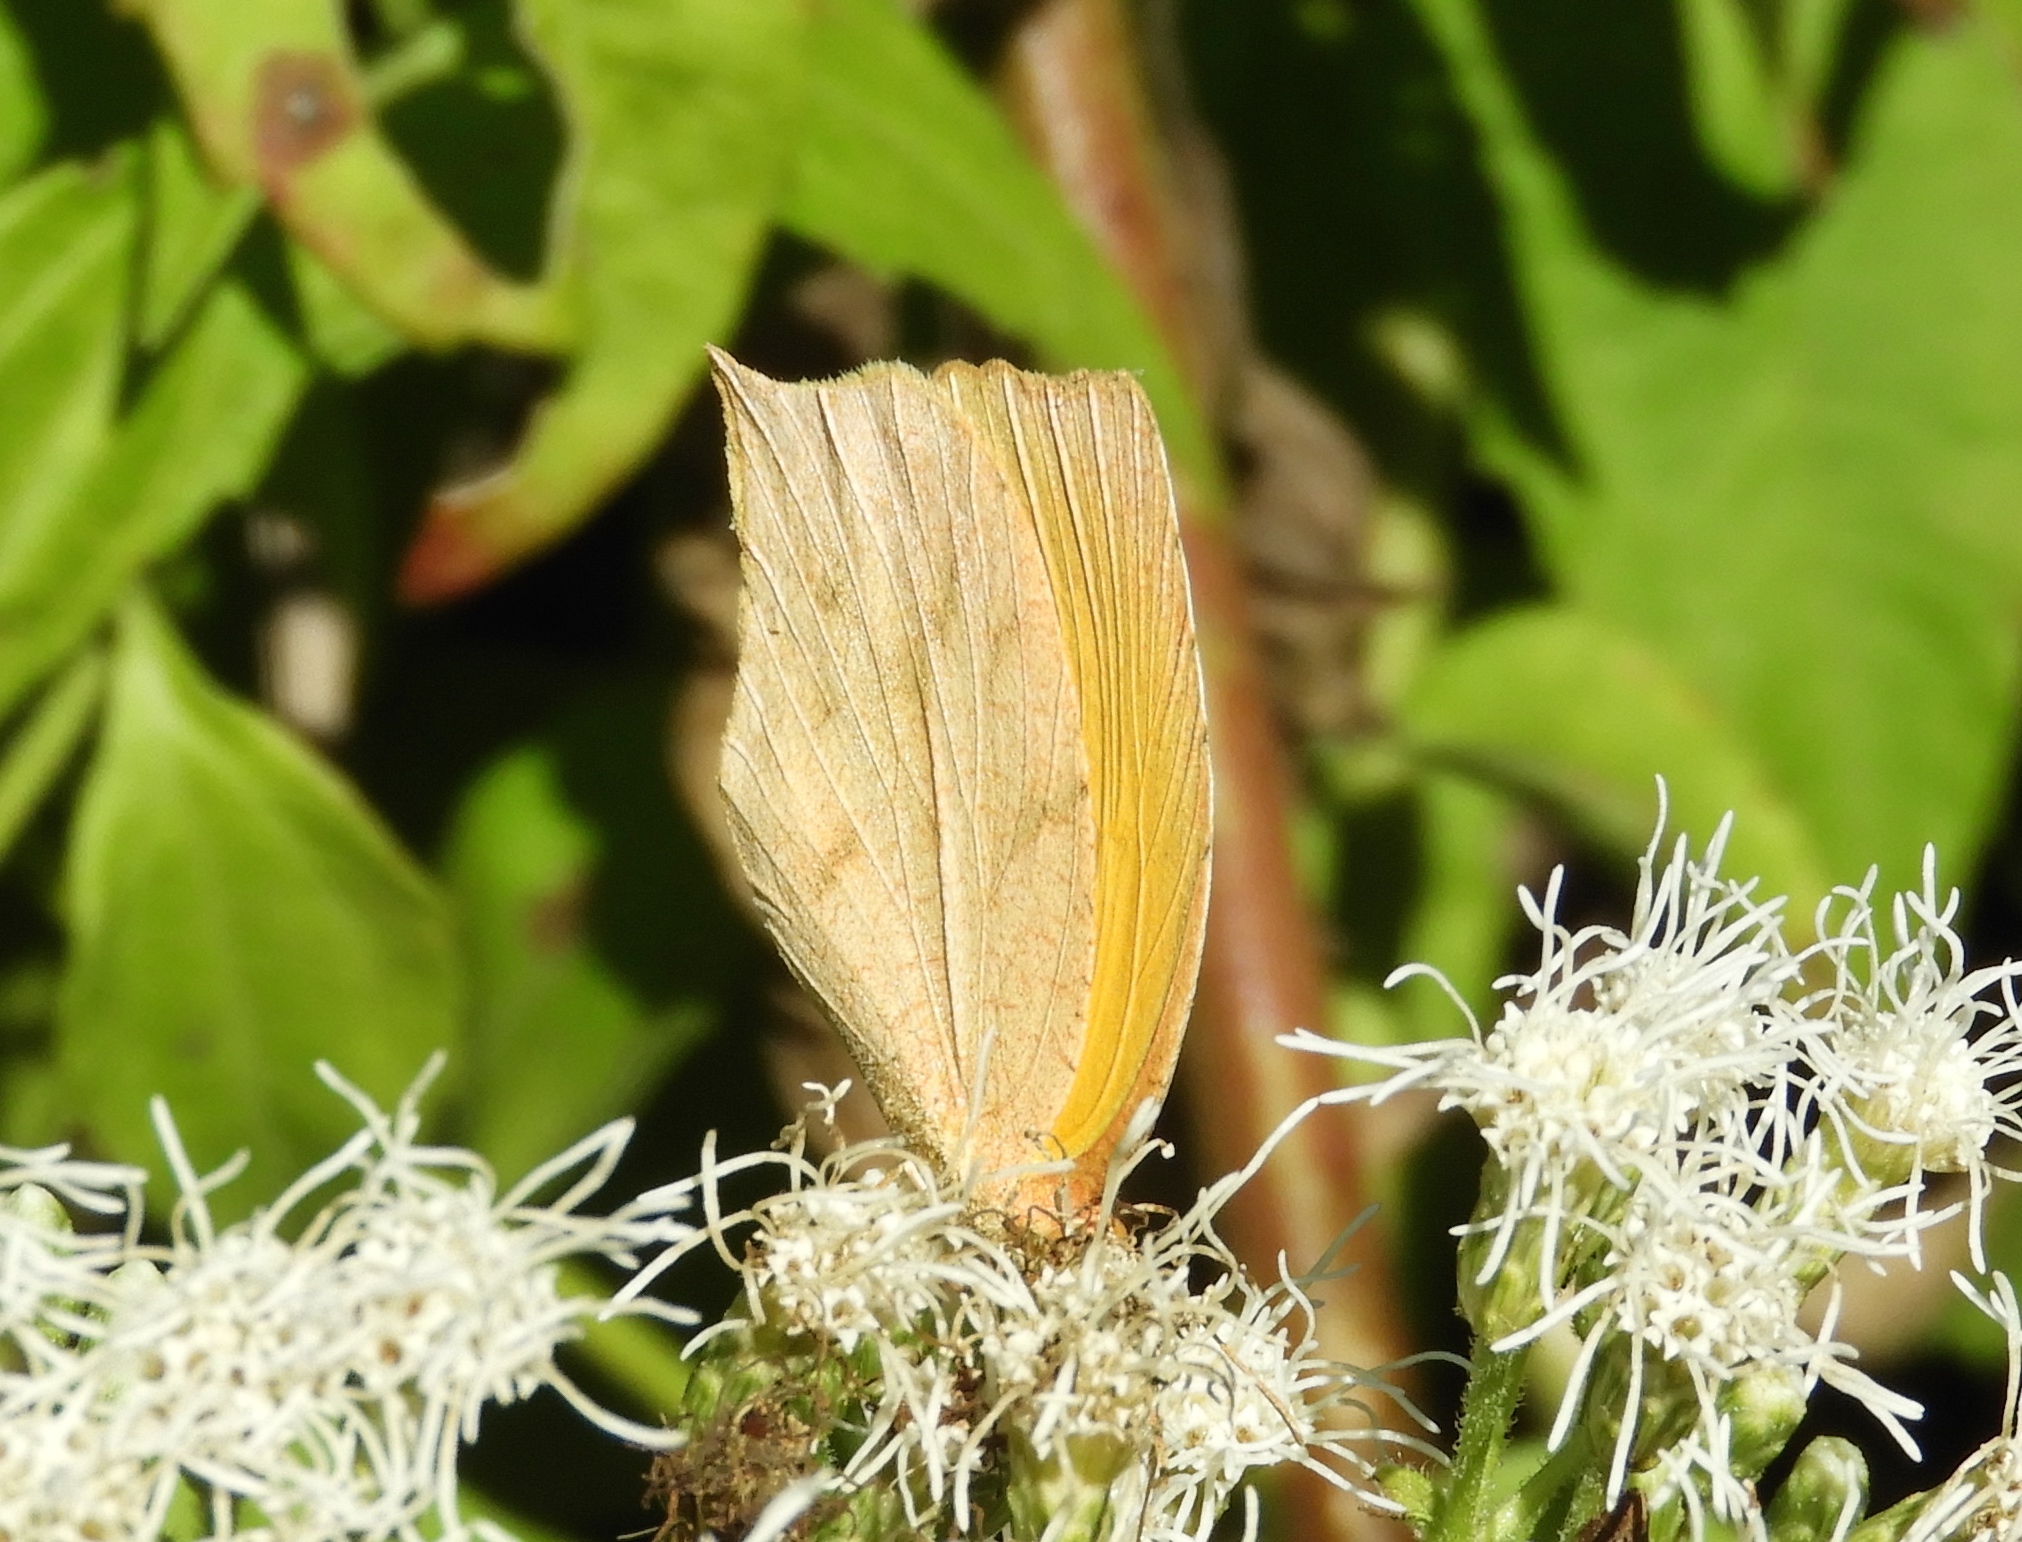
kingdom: Animalia
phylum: Arthropoda
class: Insecta
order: Lepidoptera
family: Pieridae
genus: Pyrisitia
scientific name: Pyrisitia proterpia
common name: Tailed orange
